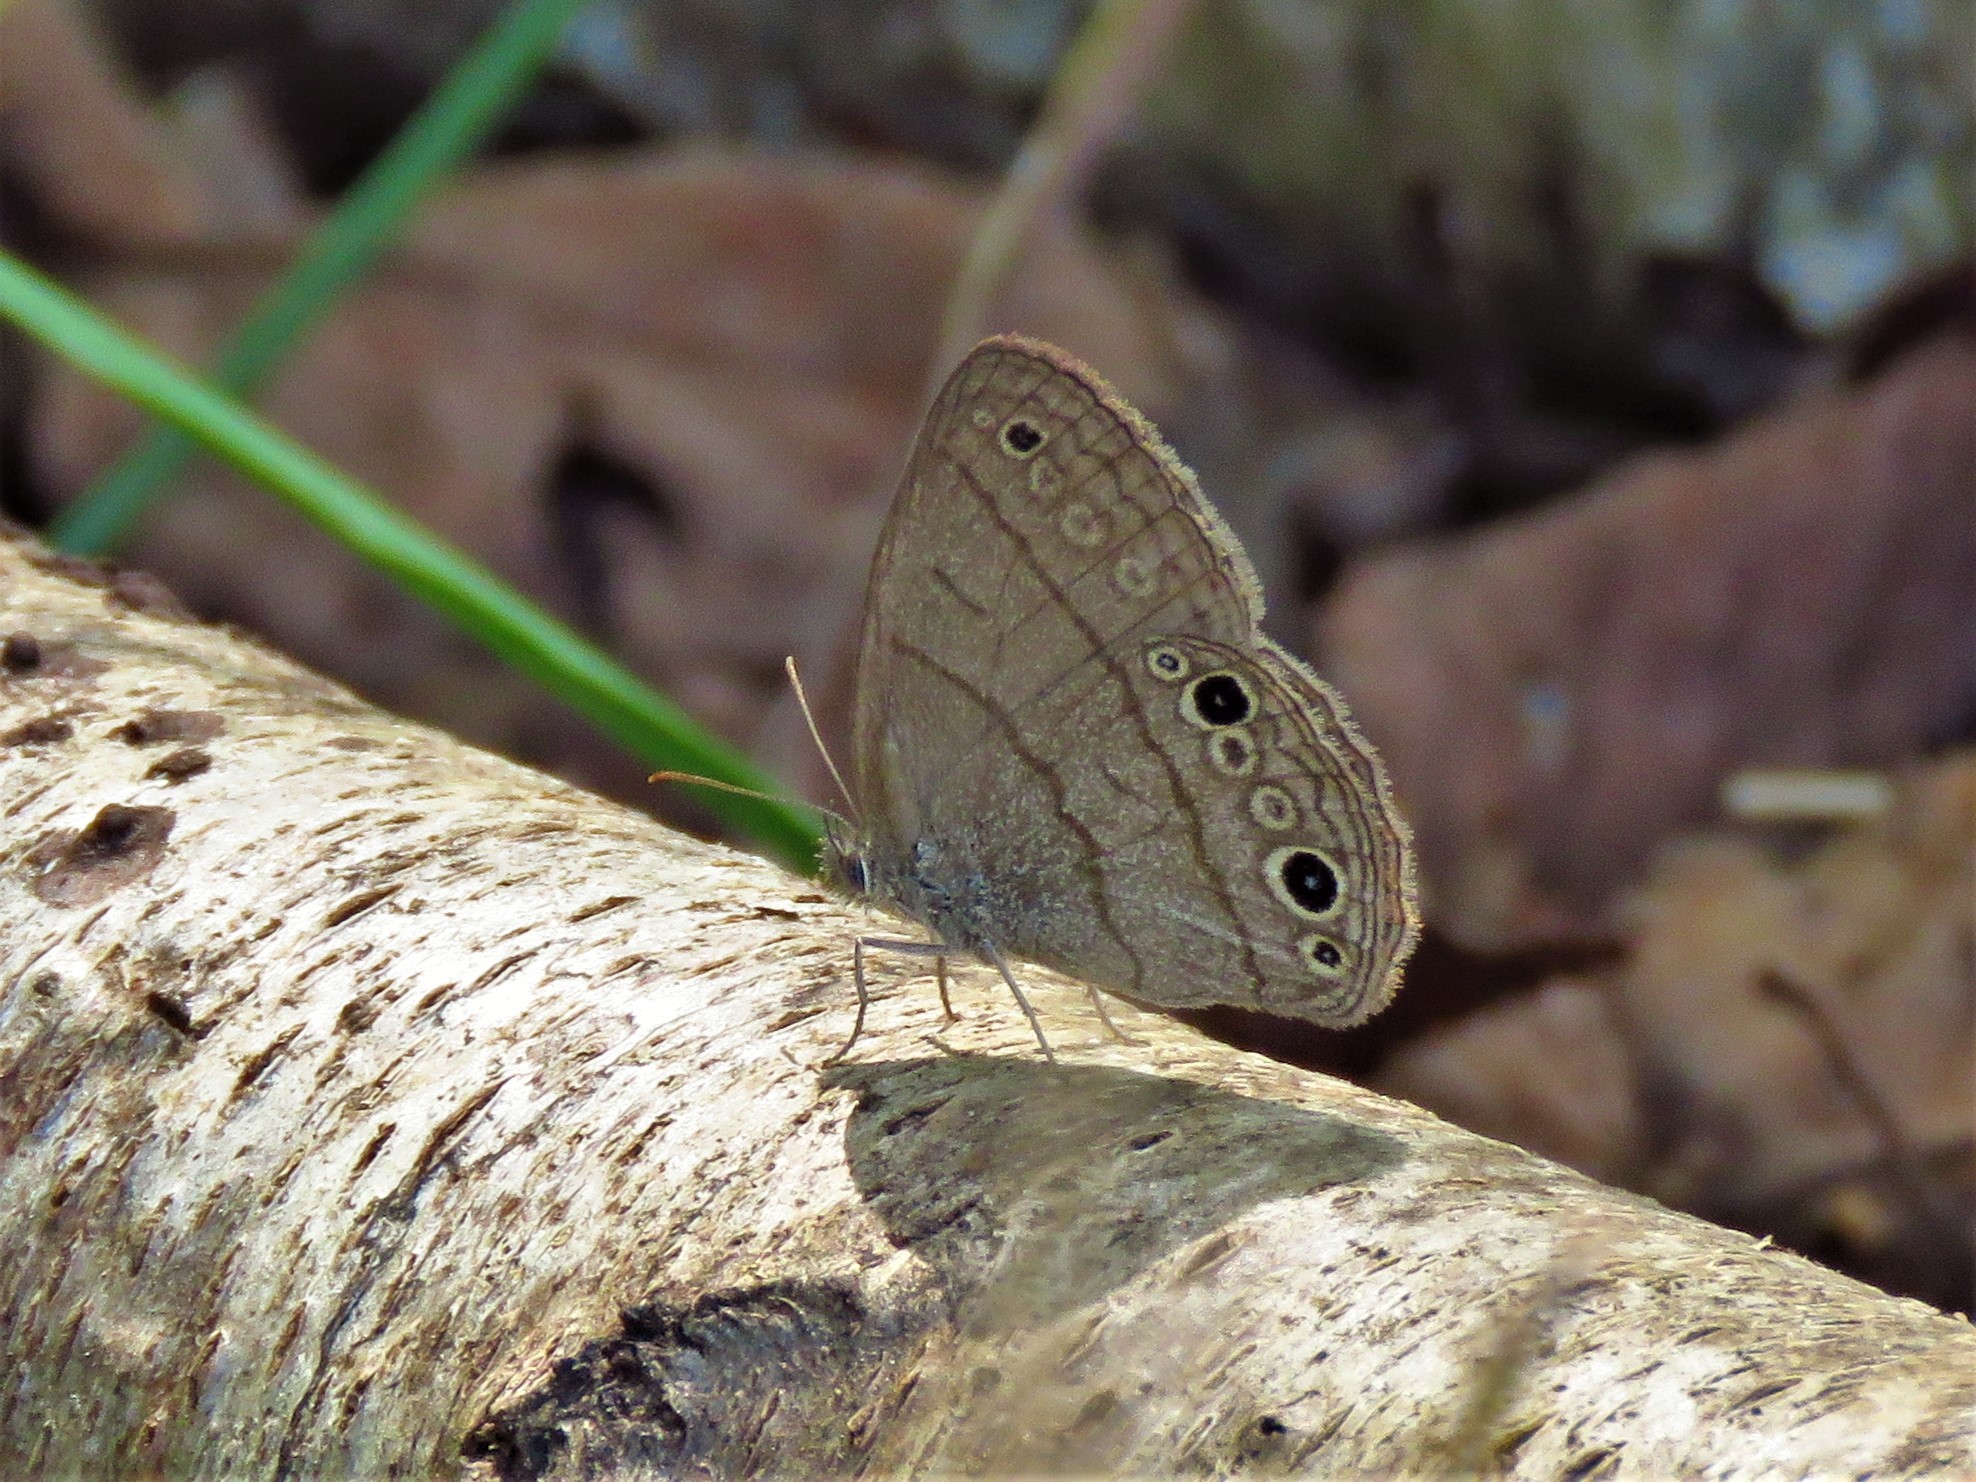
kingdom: Animalia
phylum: Arthropoda
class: Insecta
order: Lepidoptera
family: Nymphalidae
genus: Hermeuptychia
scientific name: Hermeuptychia hermes
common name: Hermes satyr
